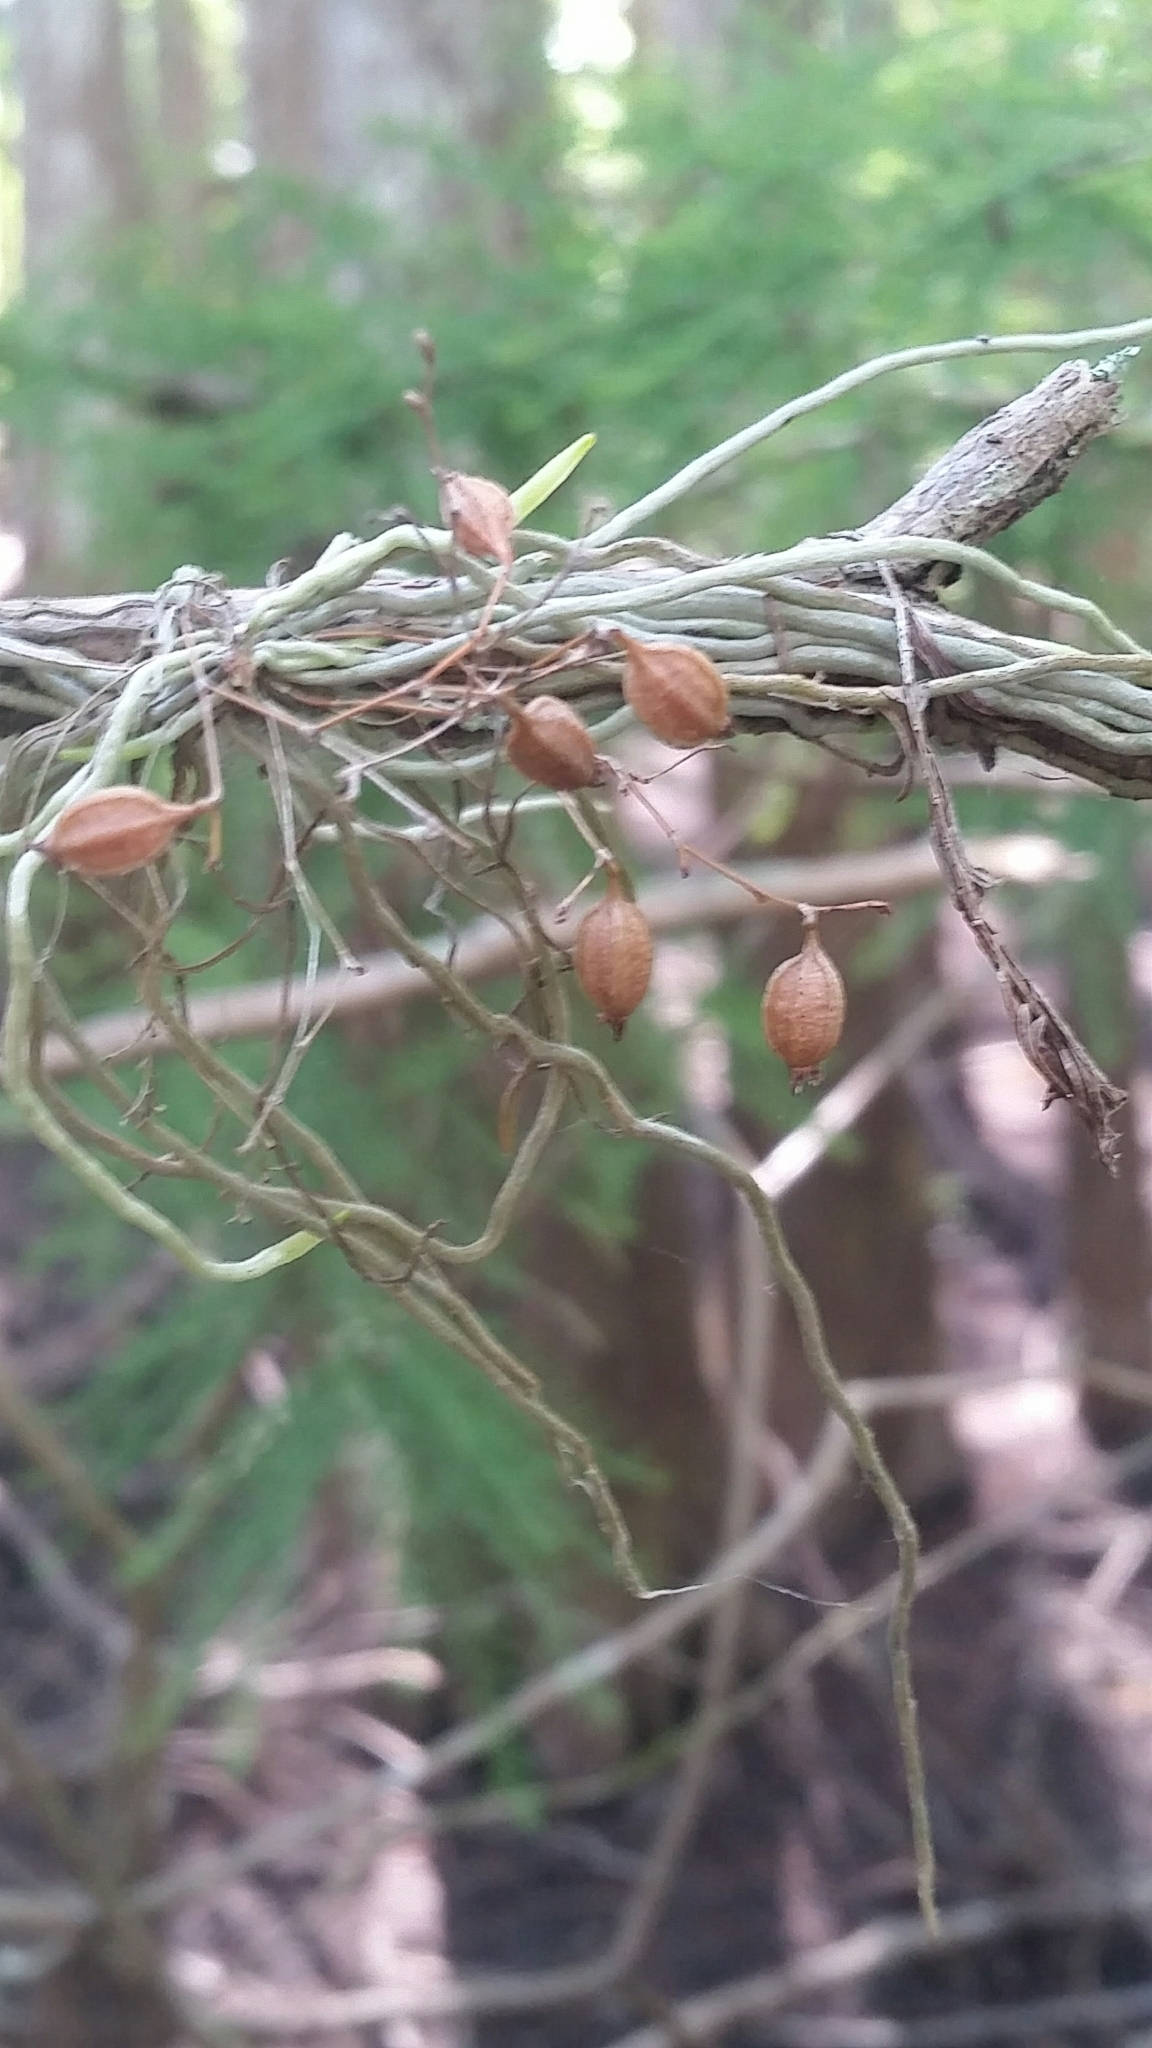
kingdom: Plantae
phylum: Tracheophyta
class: Liliopsida
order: Asparagales
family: Orchidaceae
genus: Dendrophylax
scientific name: Dendrophylax porrectus
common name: Needleroot airplant orchid
